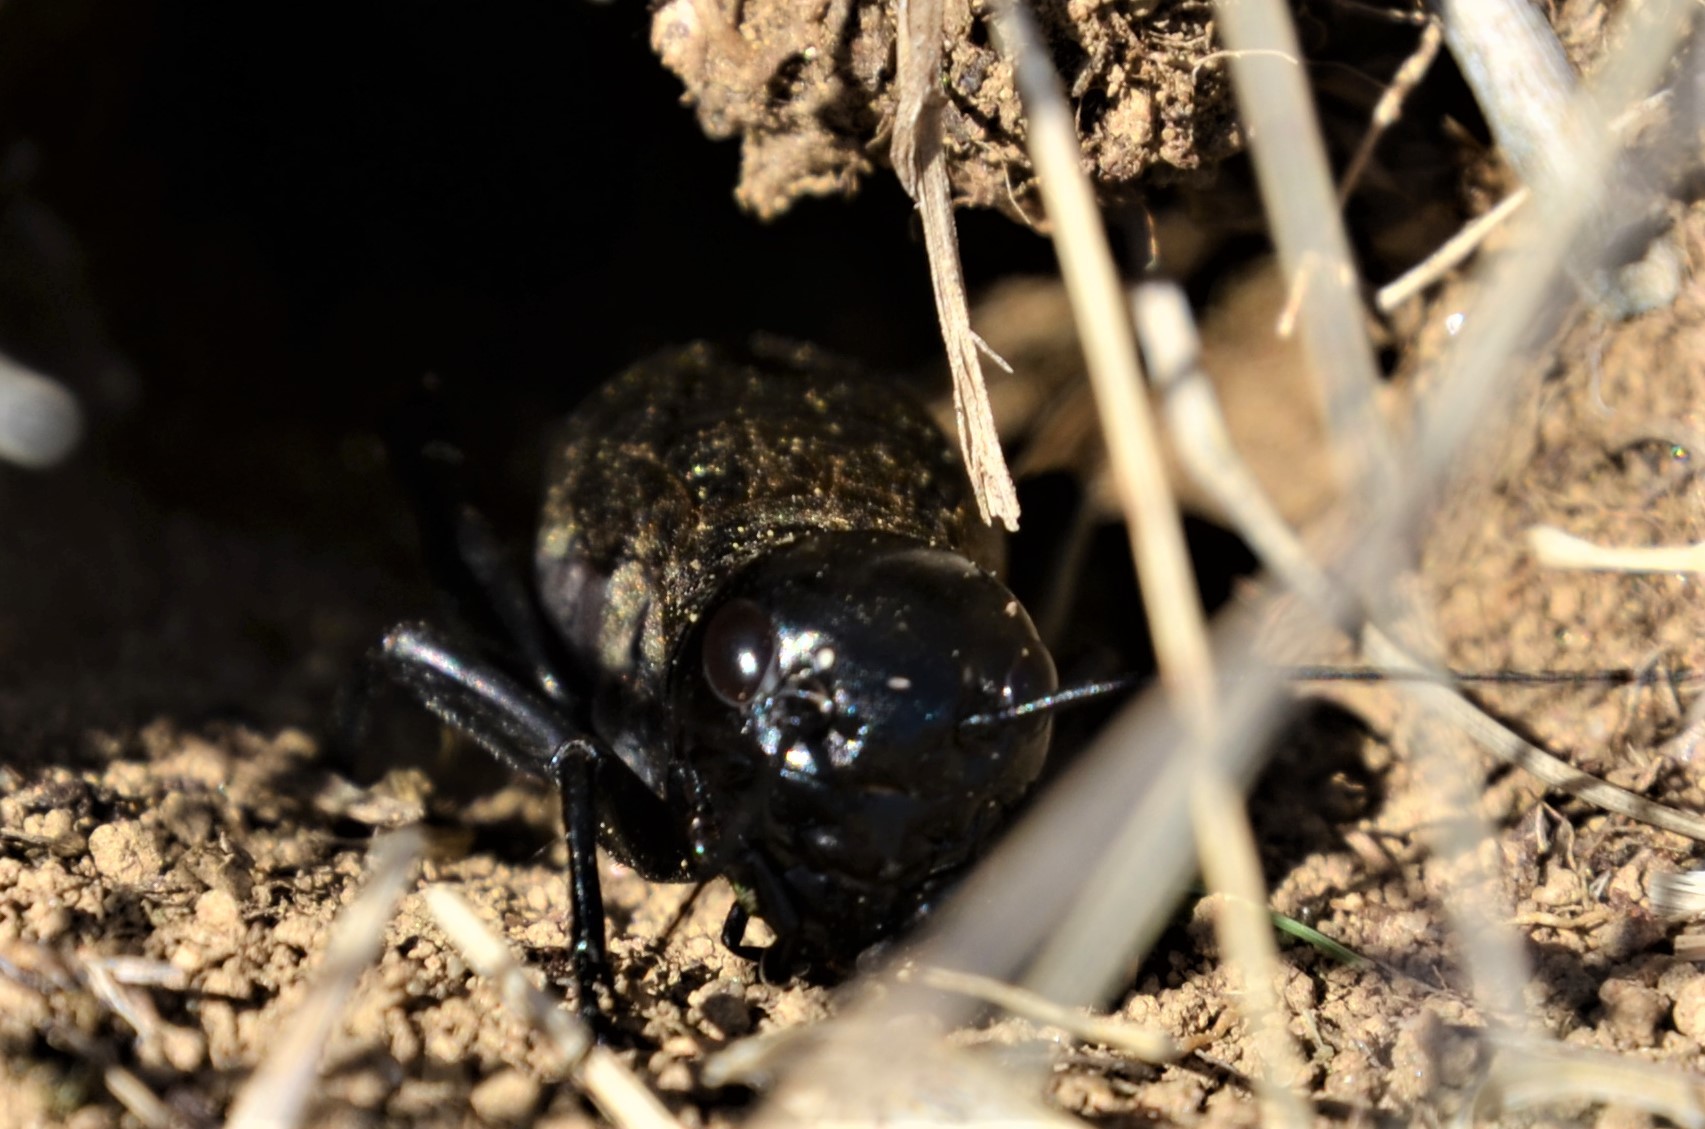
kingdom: Animalia
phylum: Arthropoda
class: Insecta
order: Orthoptera
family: Gryllidae
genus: Gryllus
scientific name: Gryllus campestris
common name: Field cricket
